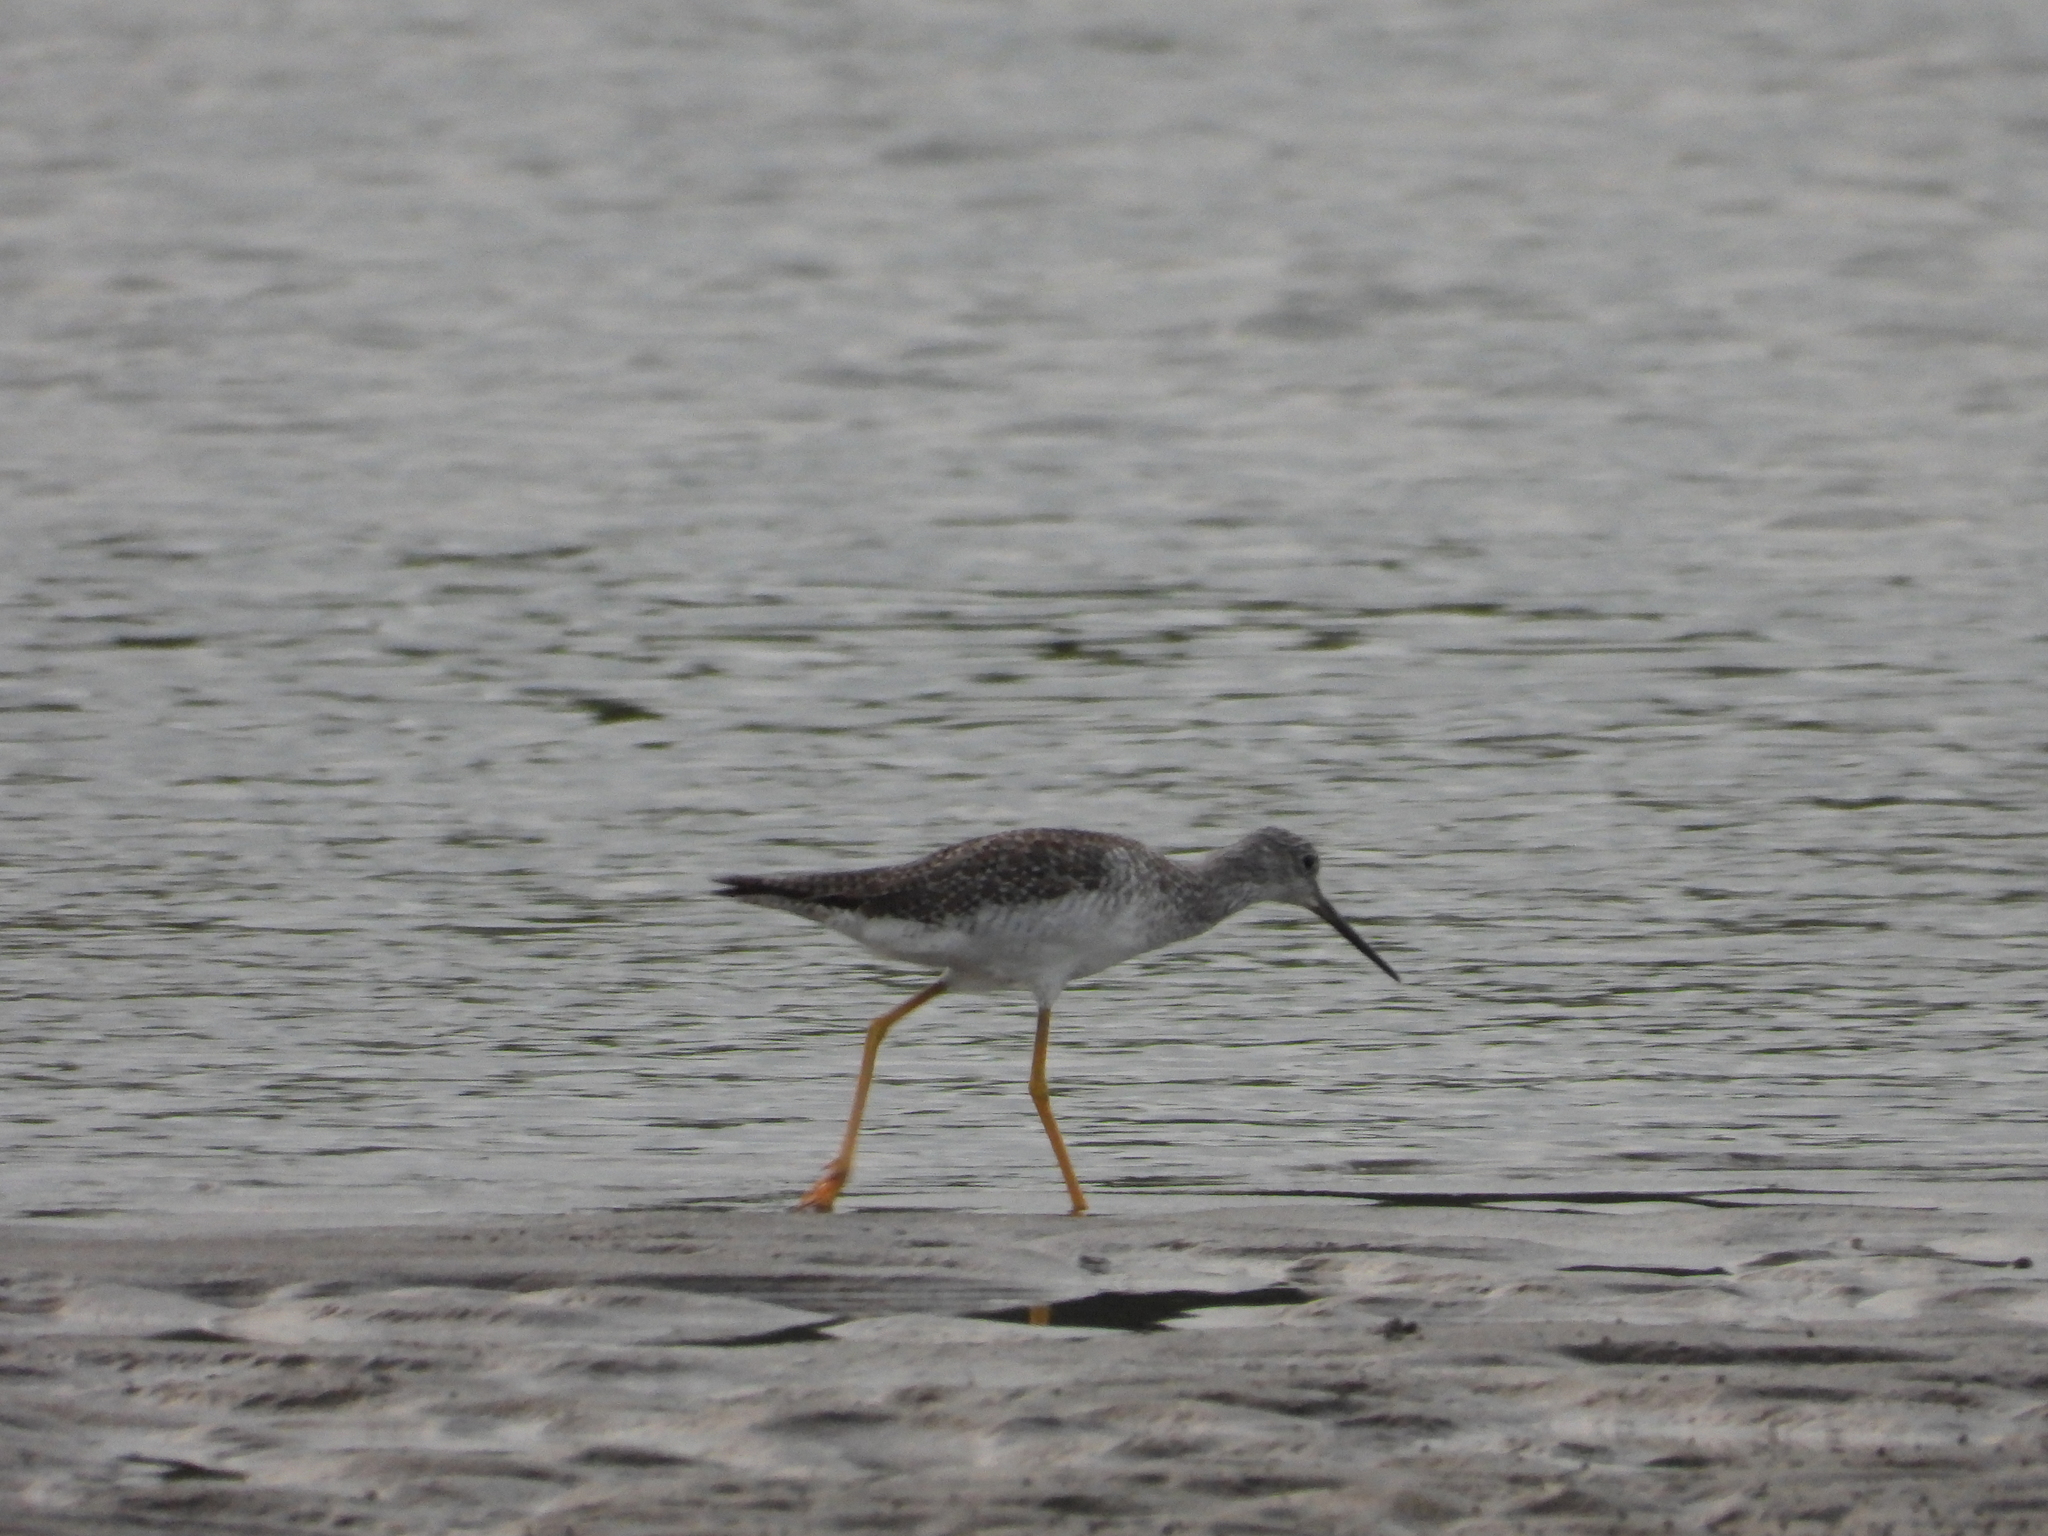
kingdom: Animalia
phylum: Chordata
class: Aves
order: Charadriiformes
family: Scolopacidae
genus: Tringa
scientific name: Tringa melanoleuca
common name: Greater yellowlegs
